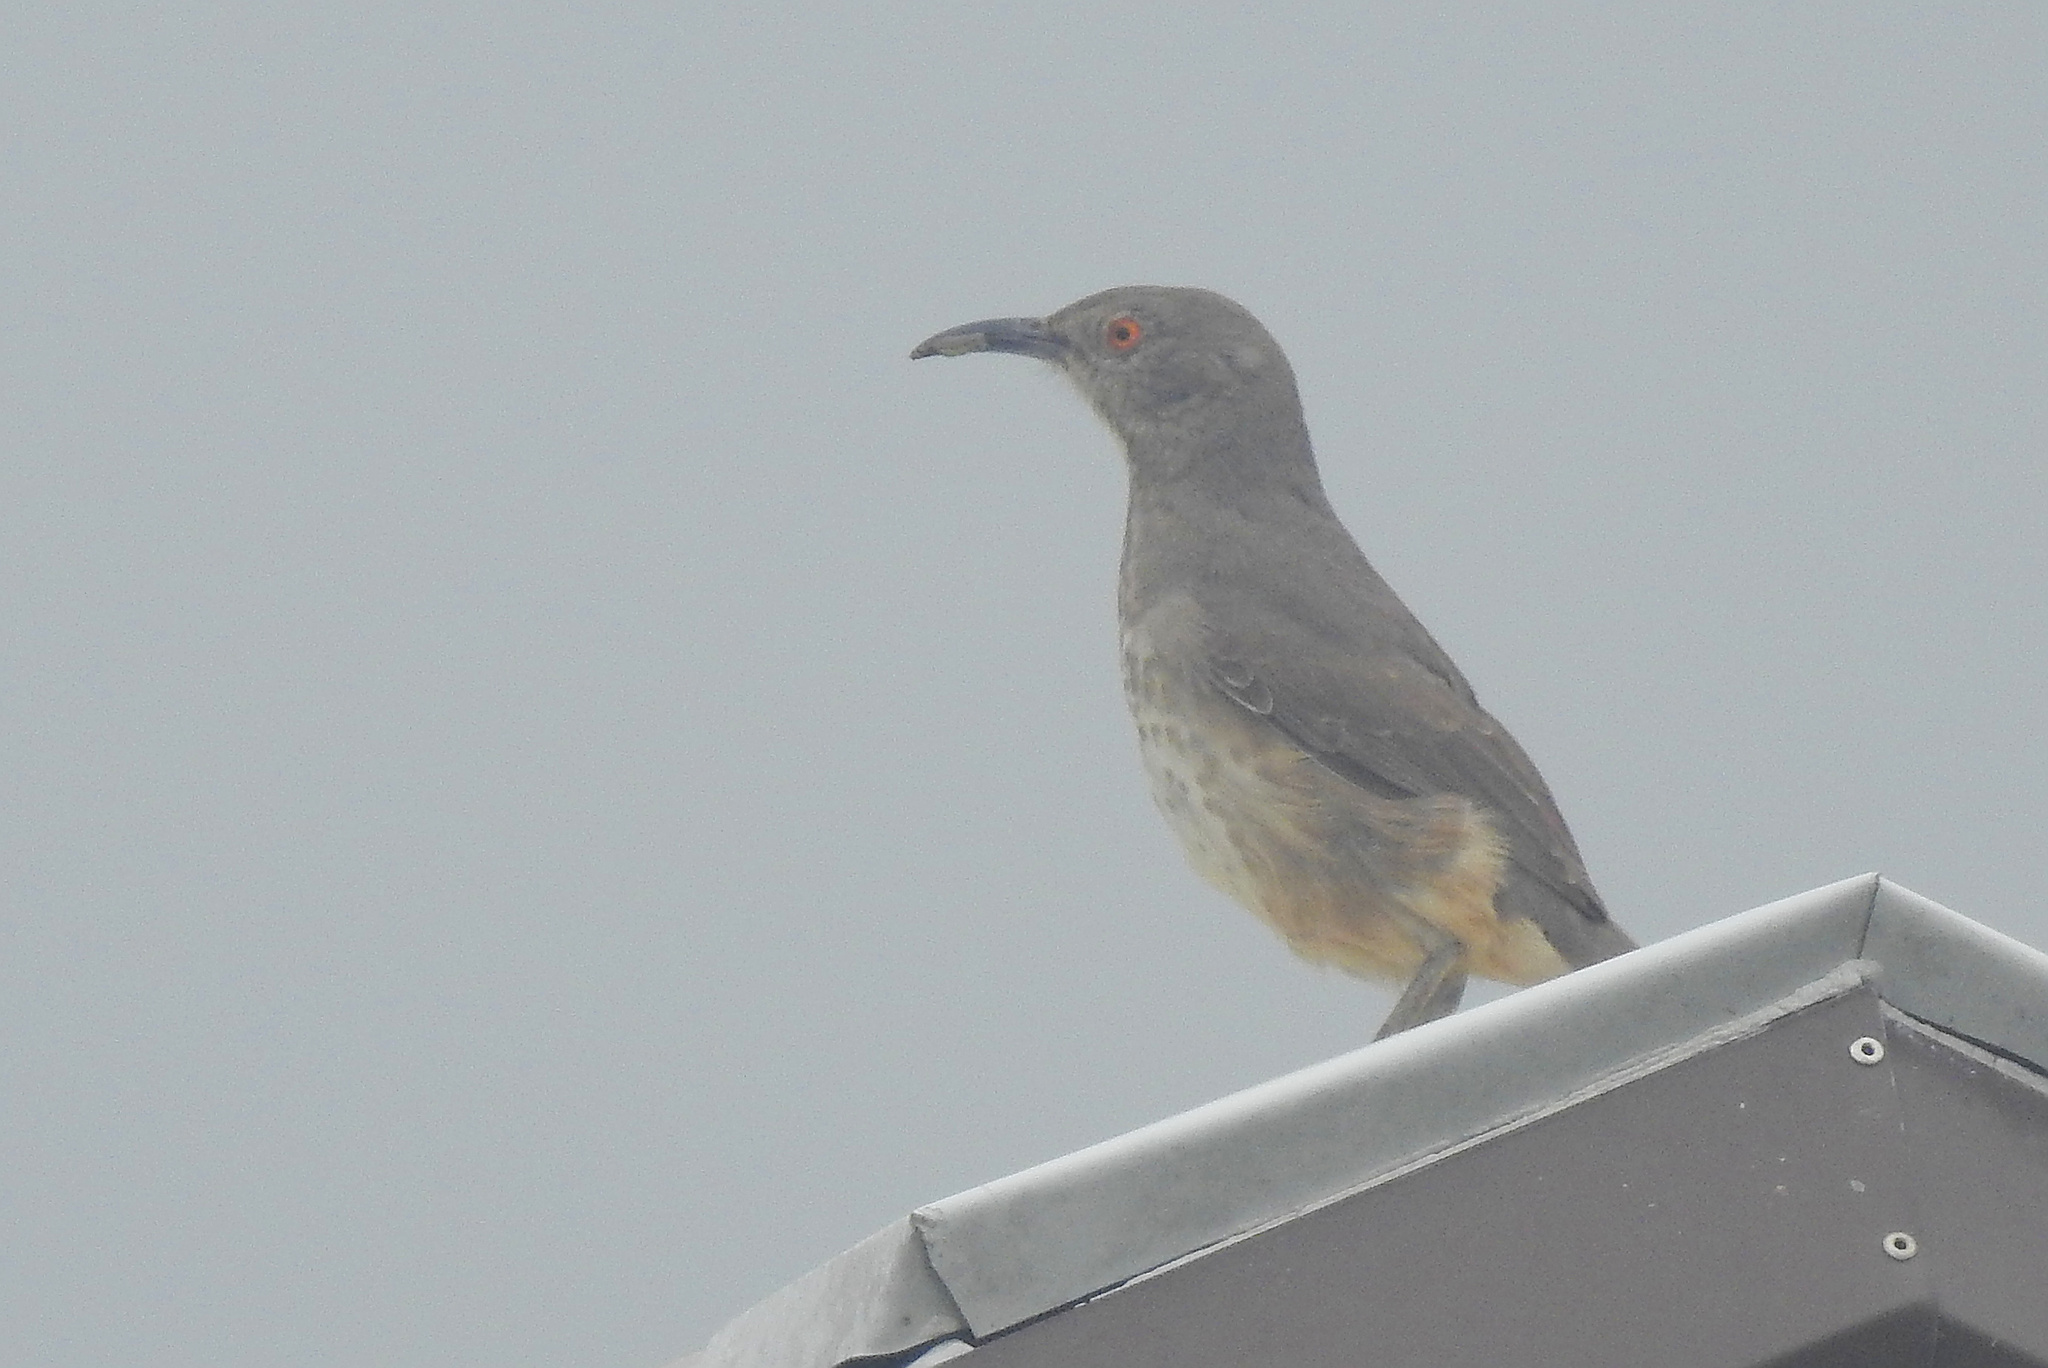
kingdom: Animalia
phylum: Chordata
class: Aves
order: Passeriformes
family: Mimidae
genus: Toxostoma
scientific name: Toxostoma curvirostre
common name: Curve-billed thrasher
